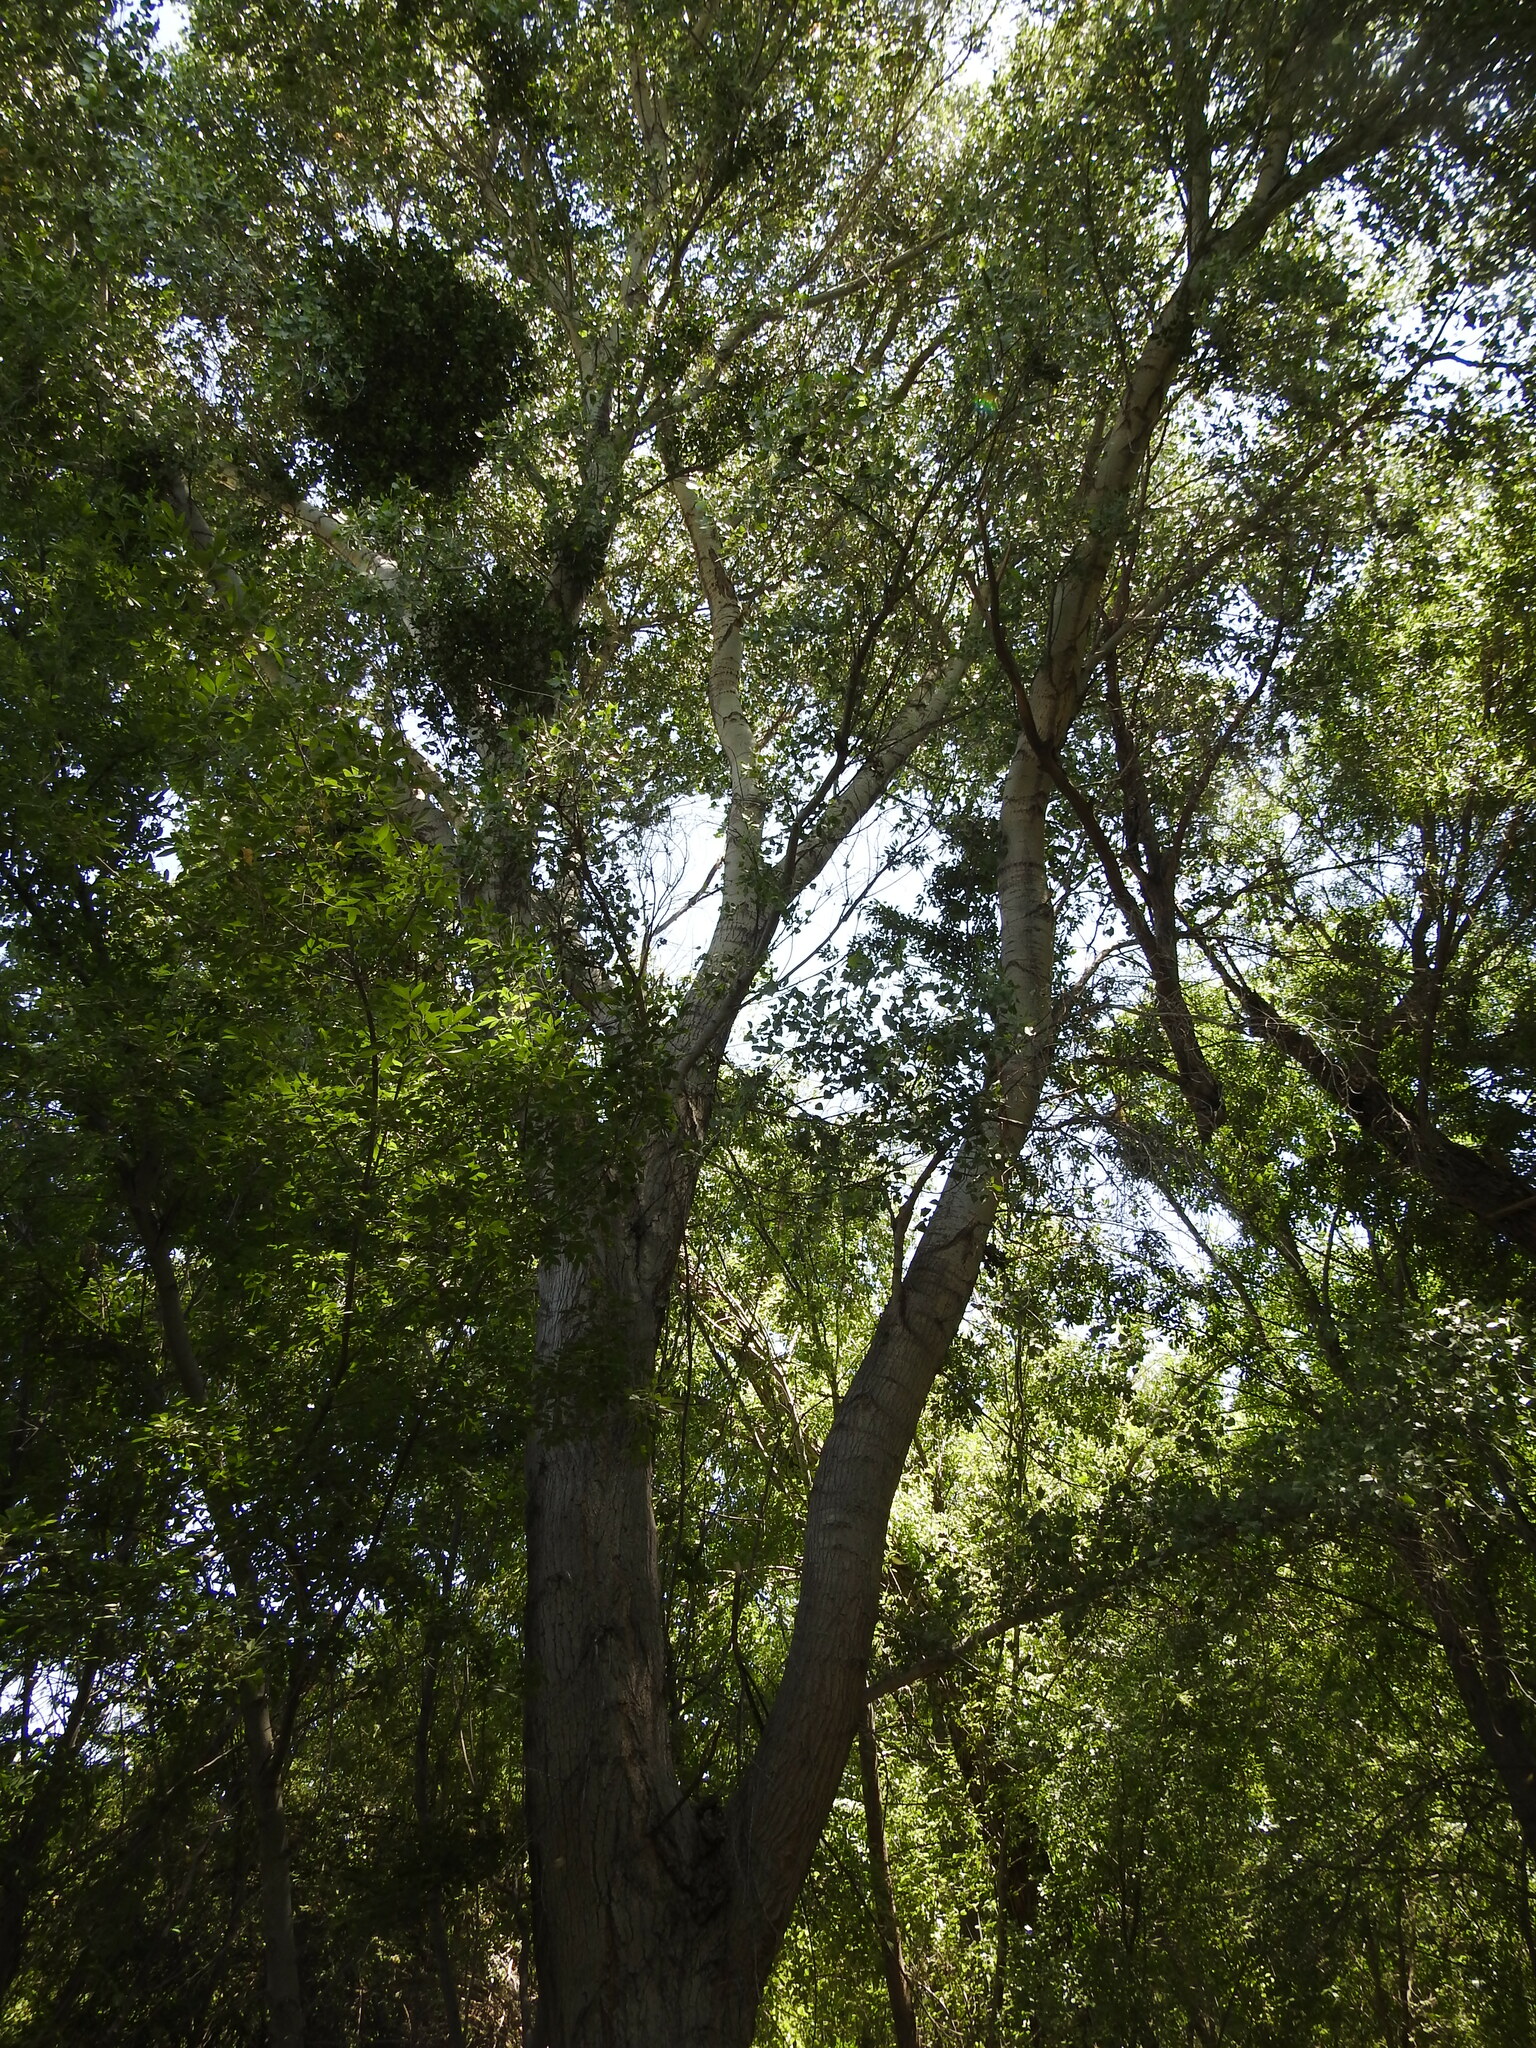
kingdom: Plantae
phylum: Tracheophyta
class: Magnoliopsida
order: Malpighiales
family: Salicaceae
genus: Populus
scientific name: Populus fremontii
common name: Fremont's cottonwood
